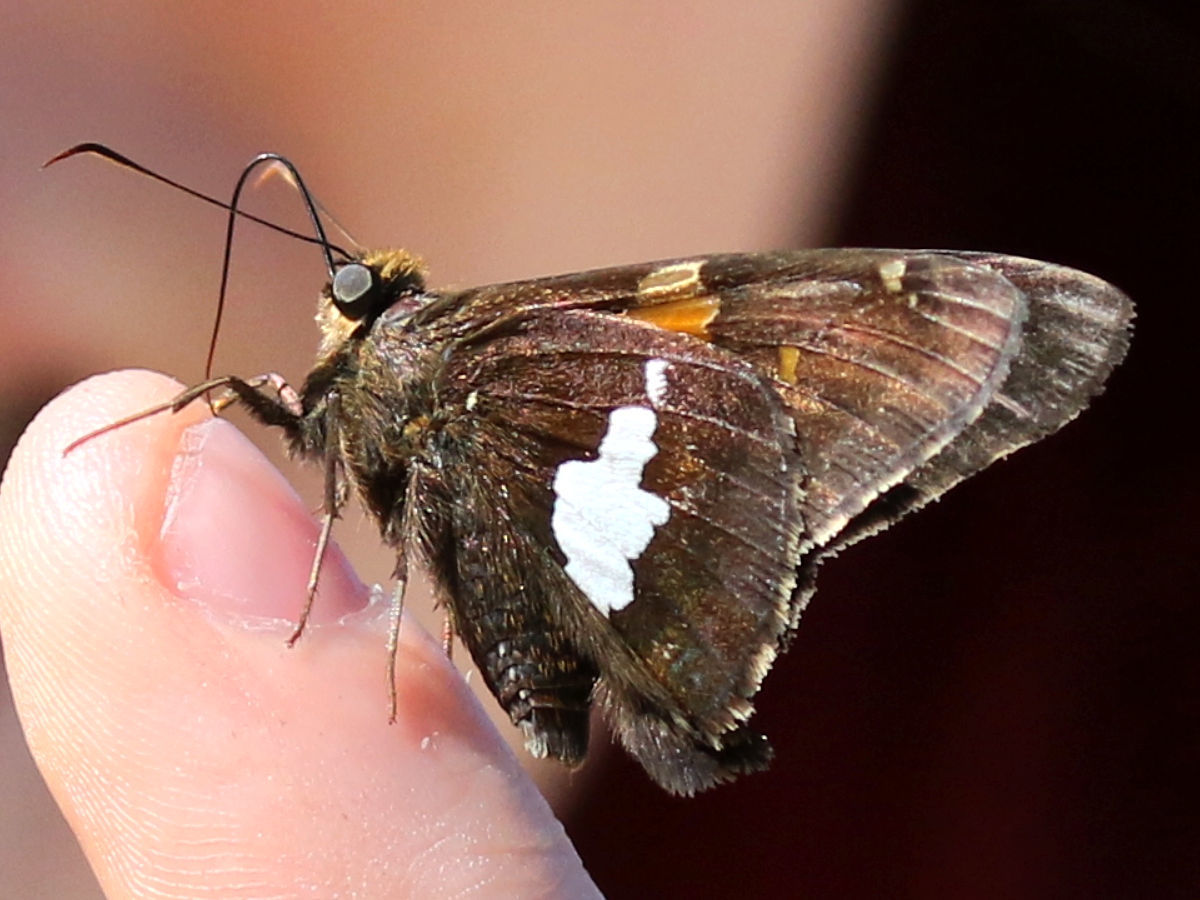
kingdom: Animalia
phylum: Arthropoda
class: Insecta
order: Lepidoptera
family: Hesperiidae
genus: Epargyreus
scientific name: Epargyreus clarus
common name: Silver-spotted skipper
